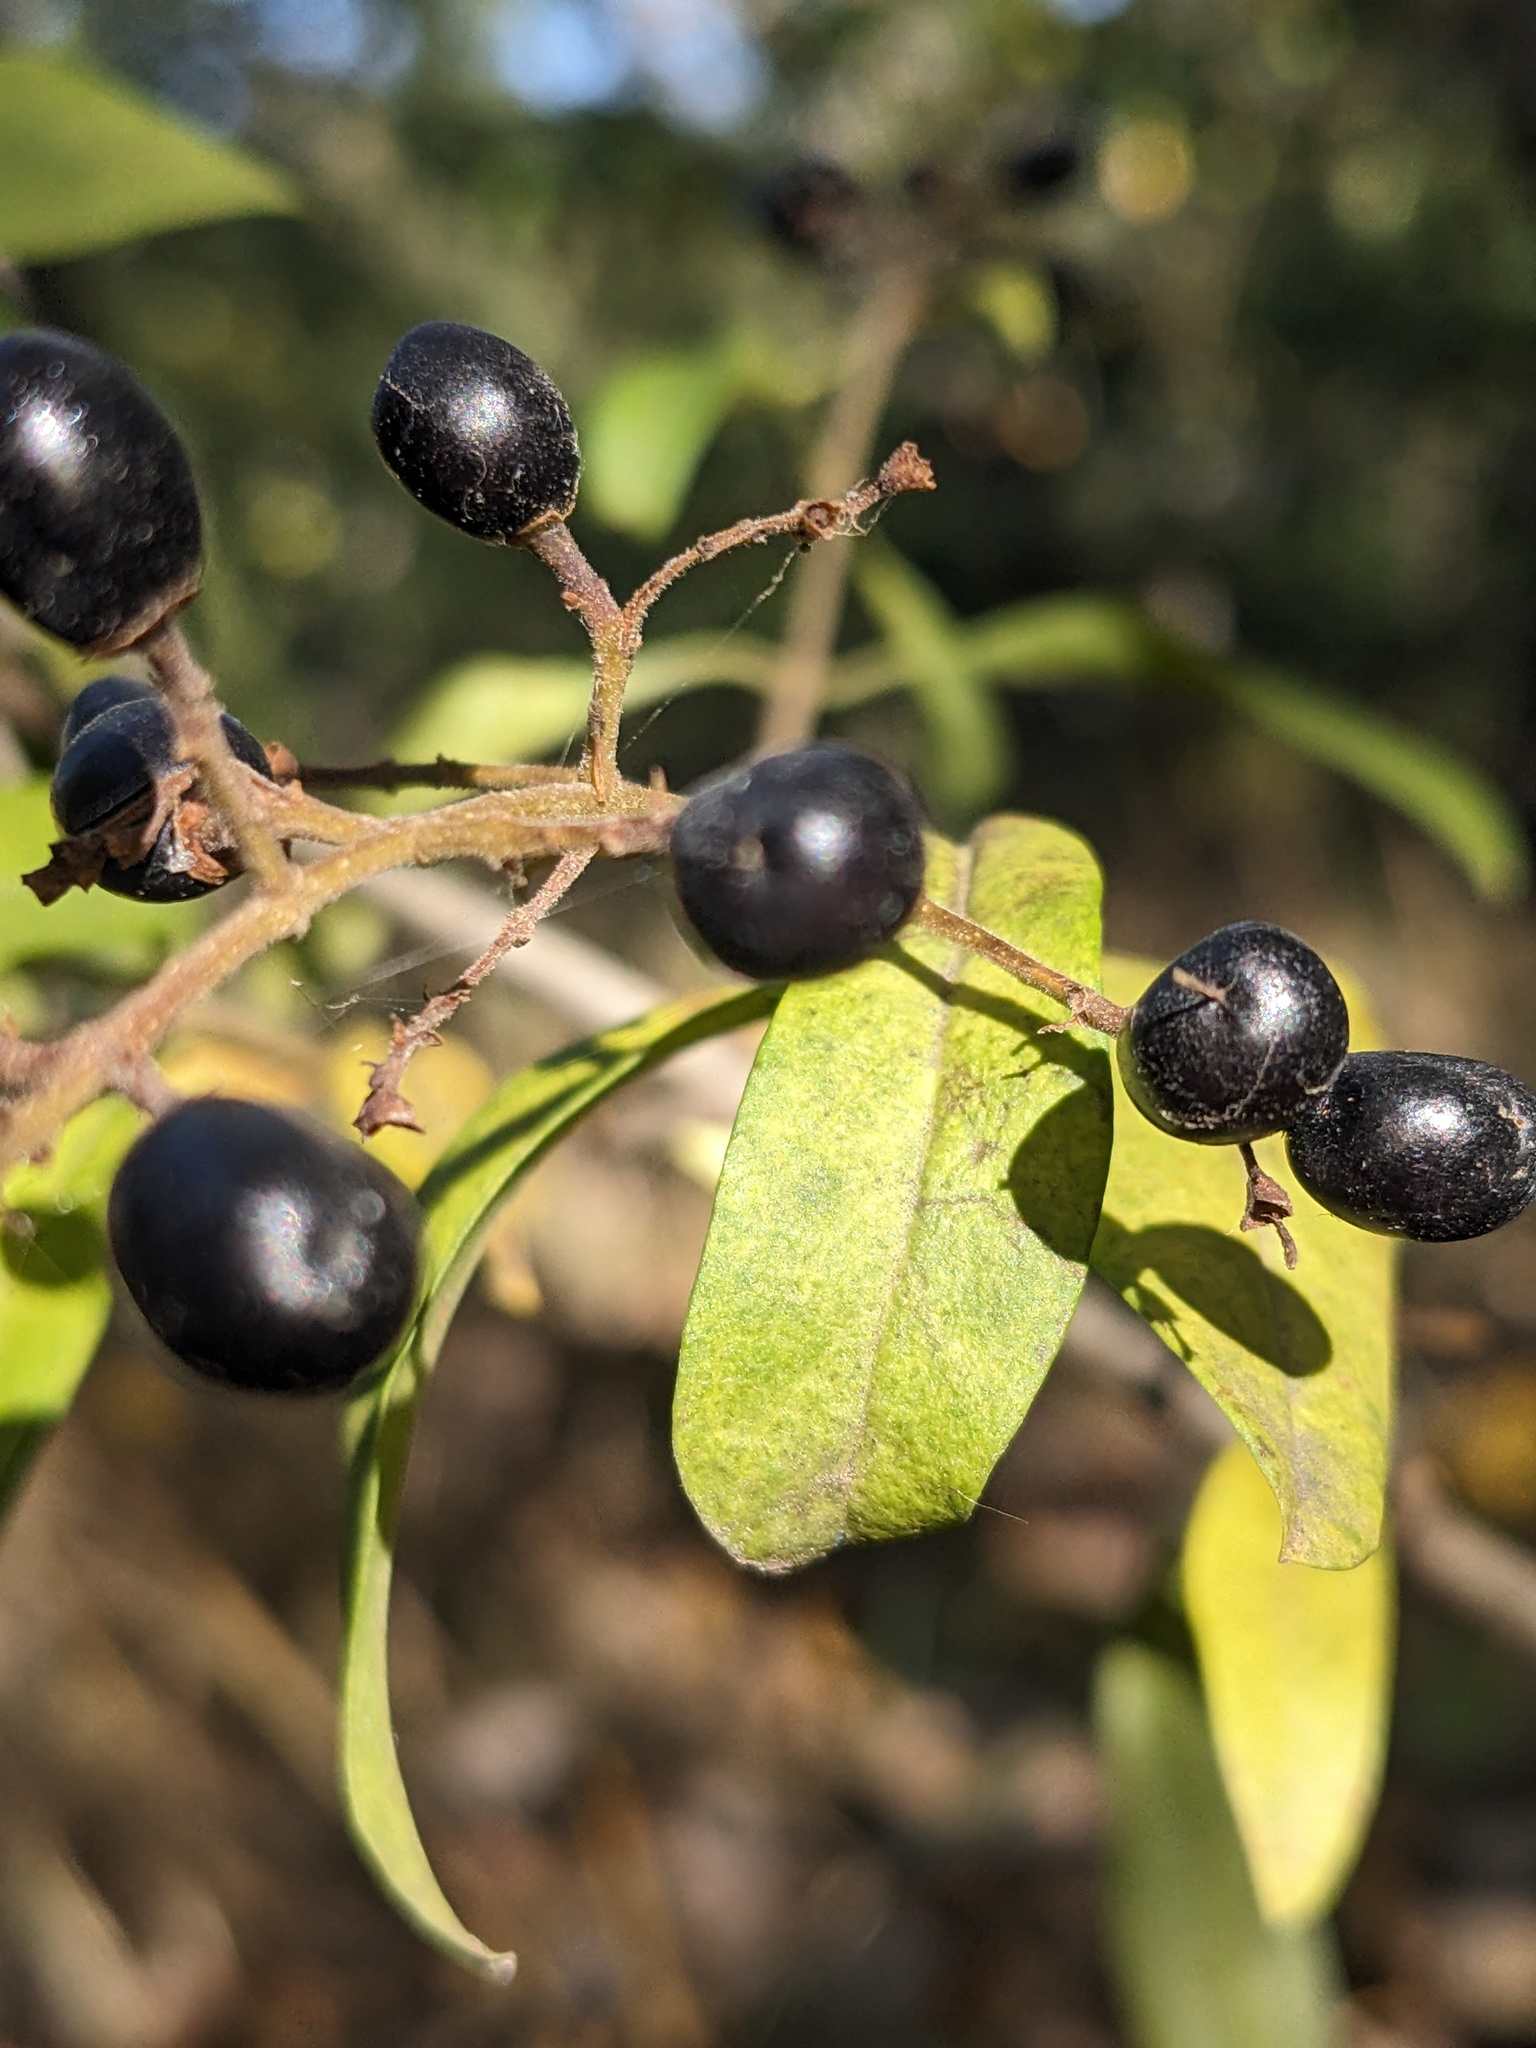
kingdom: Plantae
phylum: Tracheophyta
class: Magnoliopsida
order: Lamiales
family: Oleaceae
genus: Ligustrum
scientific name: Ligustrum vulgare
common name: Wild privet
